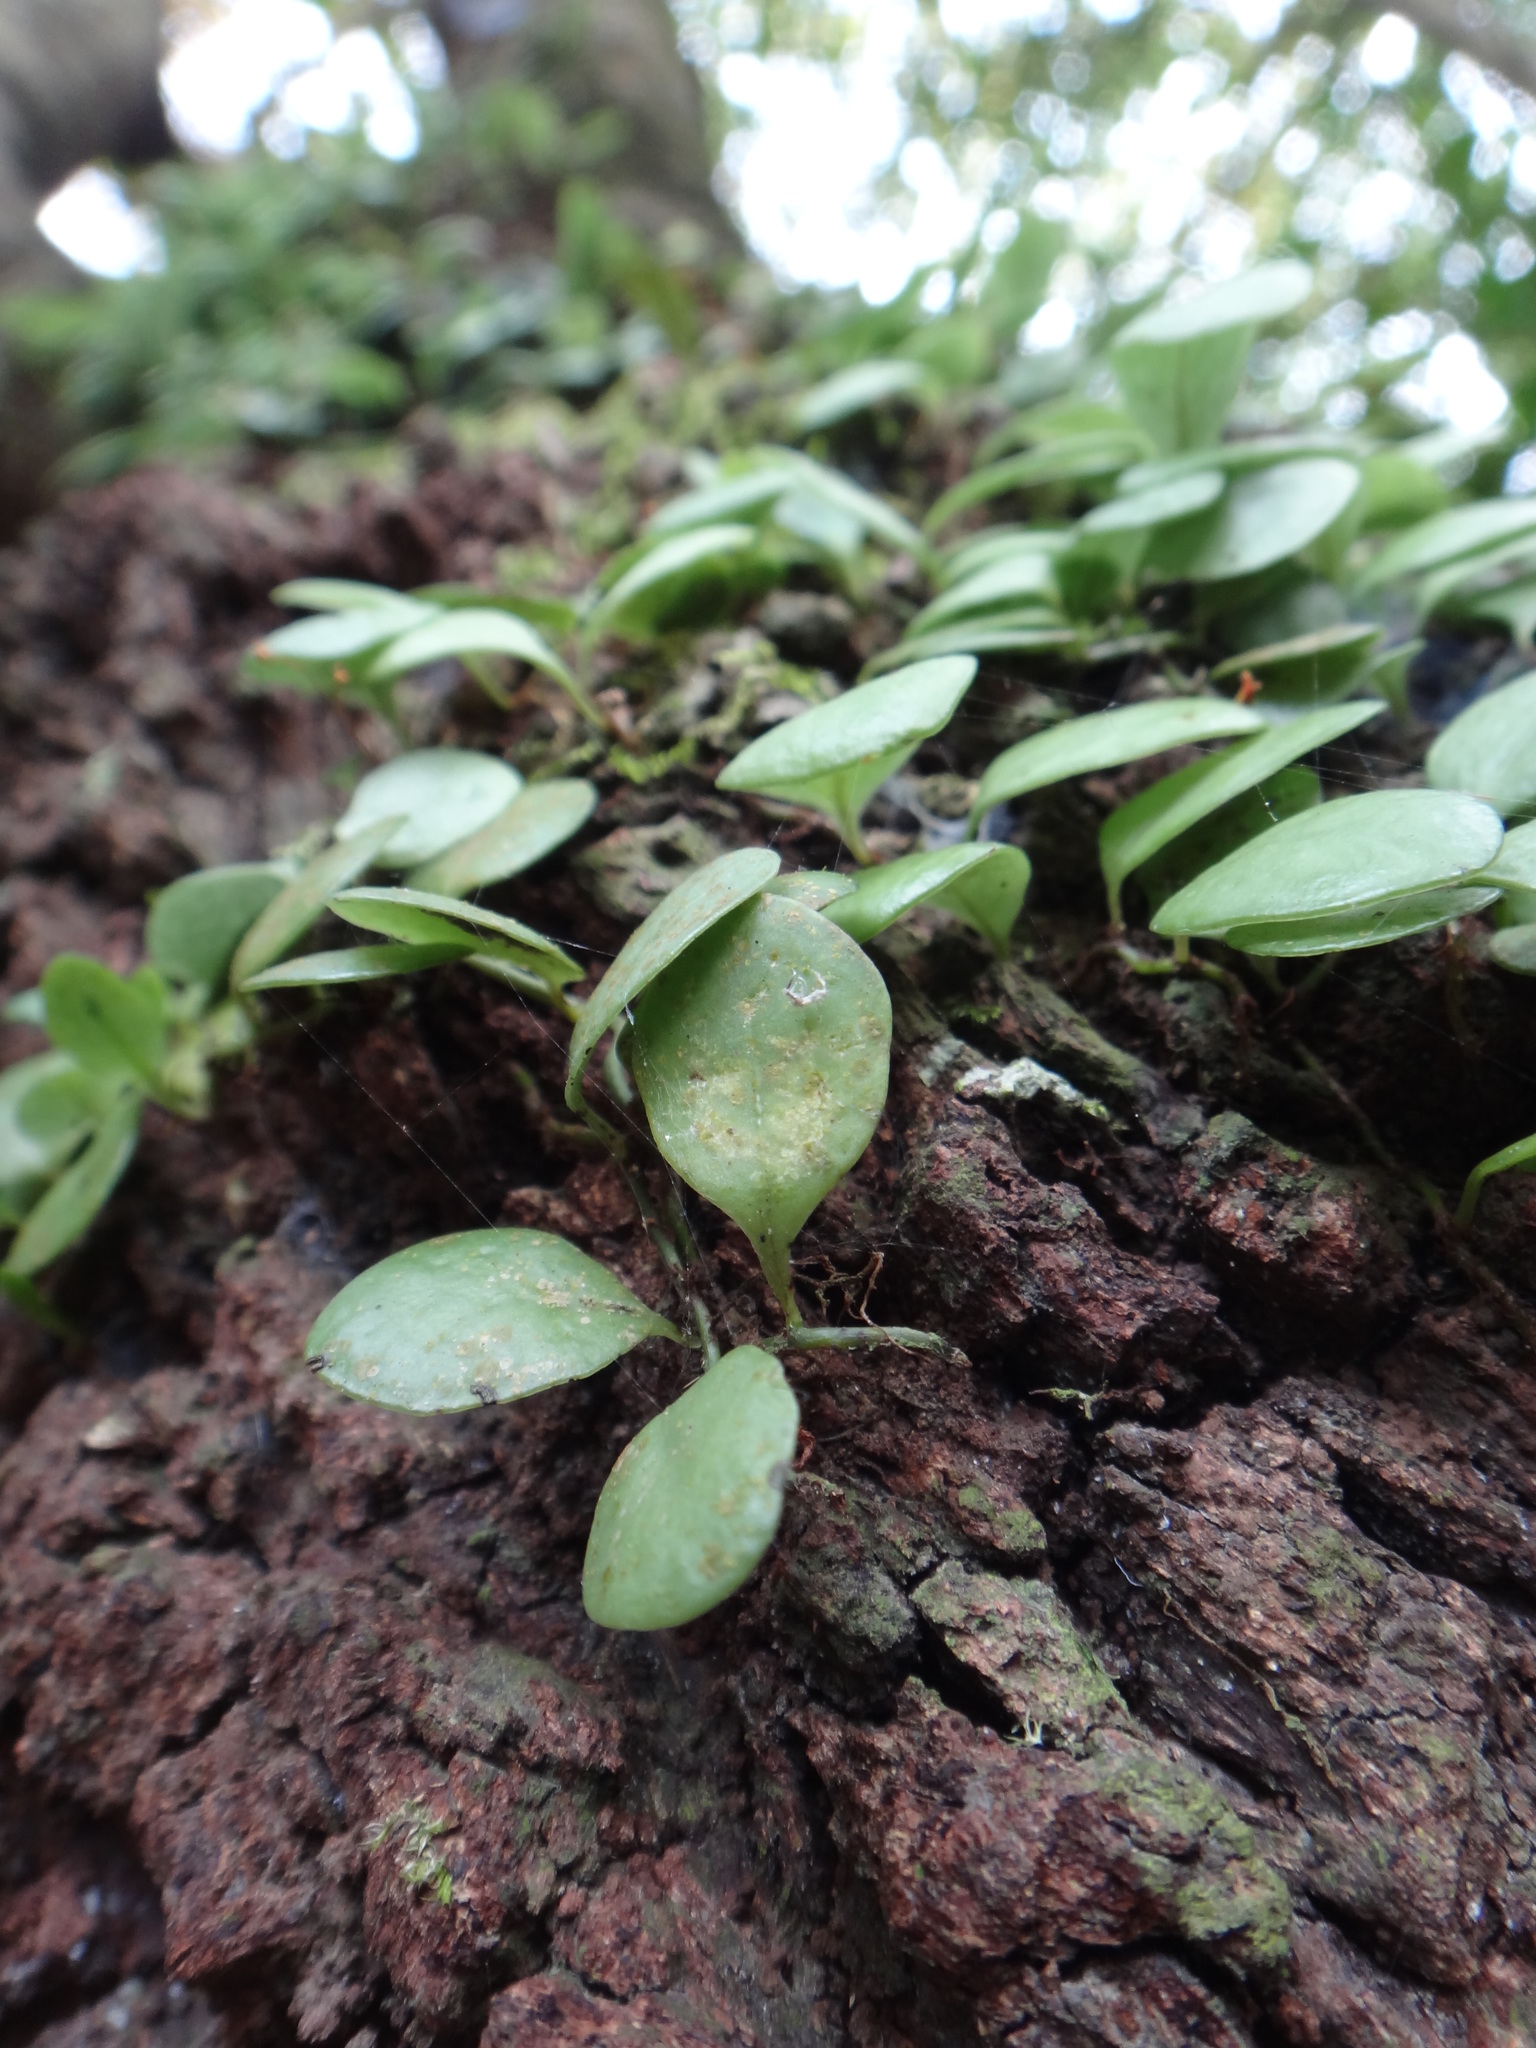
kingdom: Plantae
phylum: Tracheophyta
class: Polypodiopsida
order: Polypodiales
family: Polypodiaceae
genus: Lepisorus
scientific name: Lepisorus microphyllus
